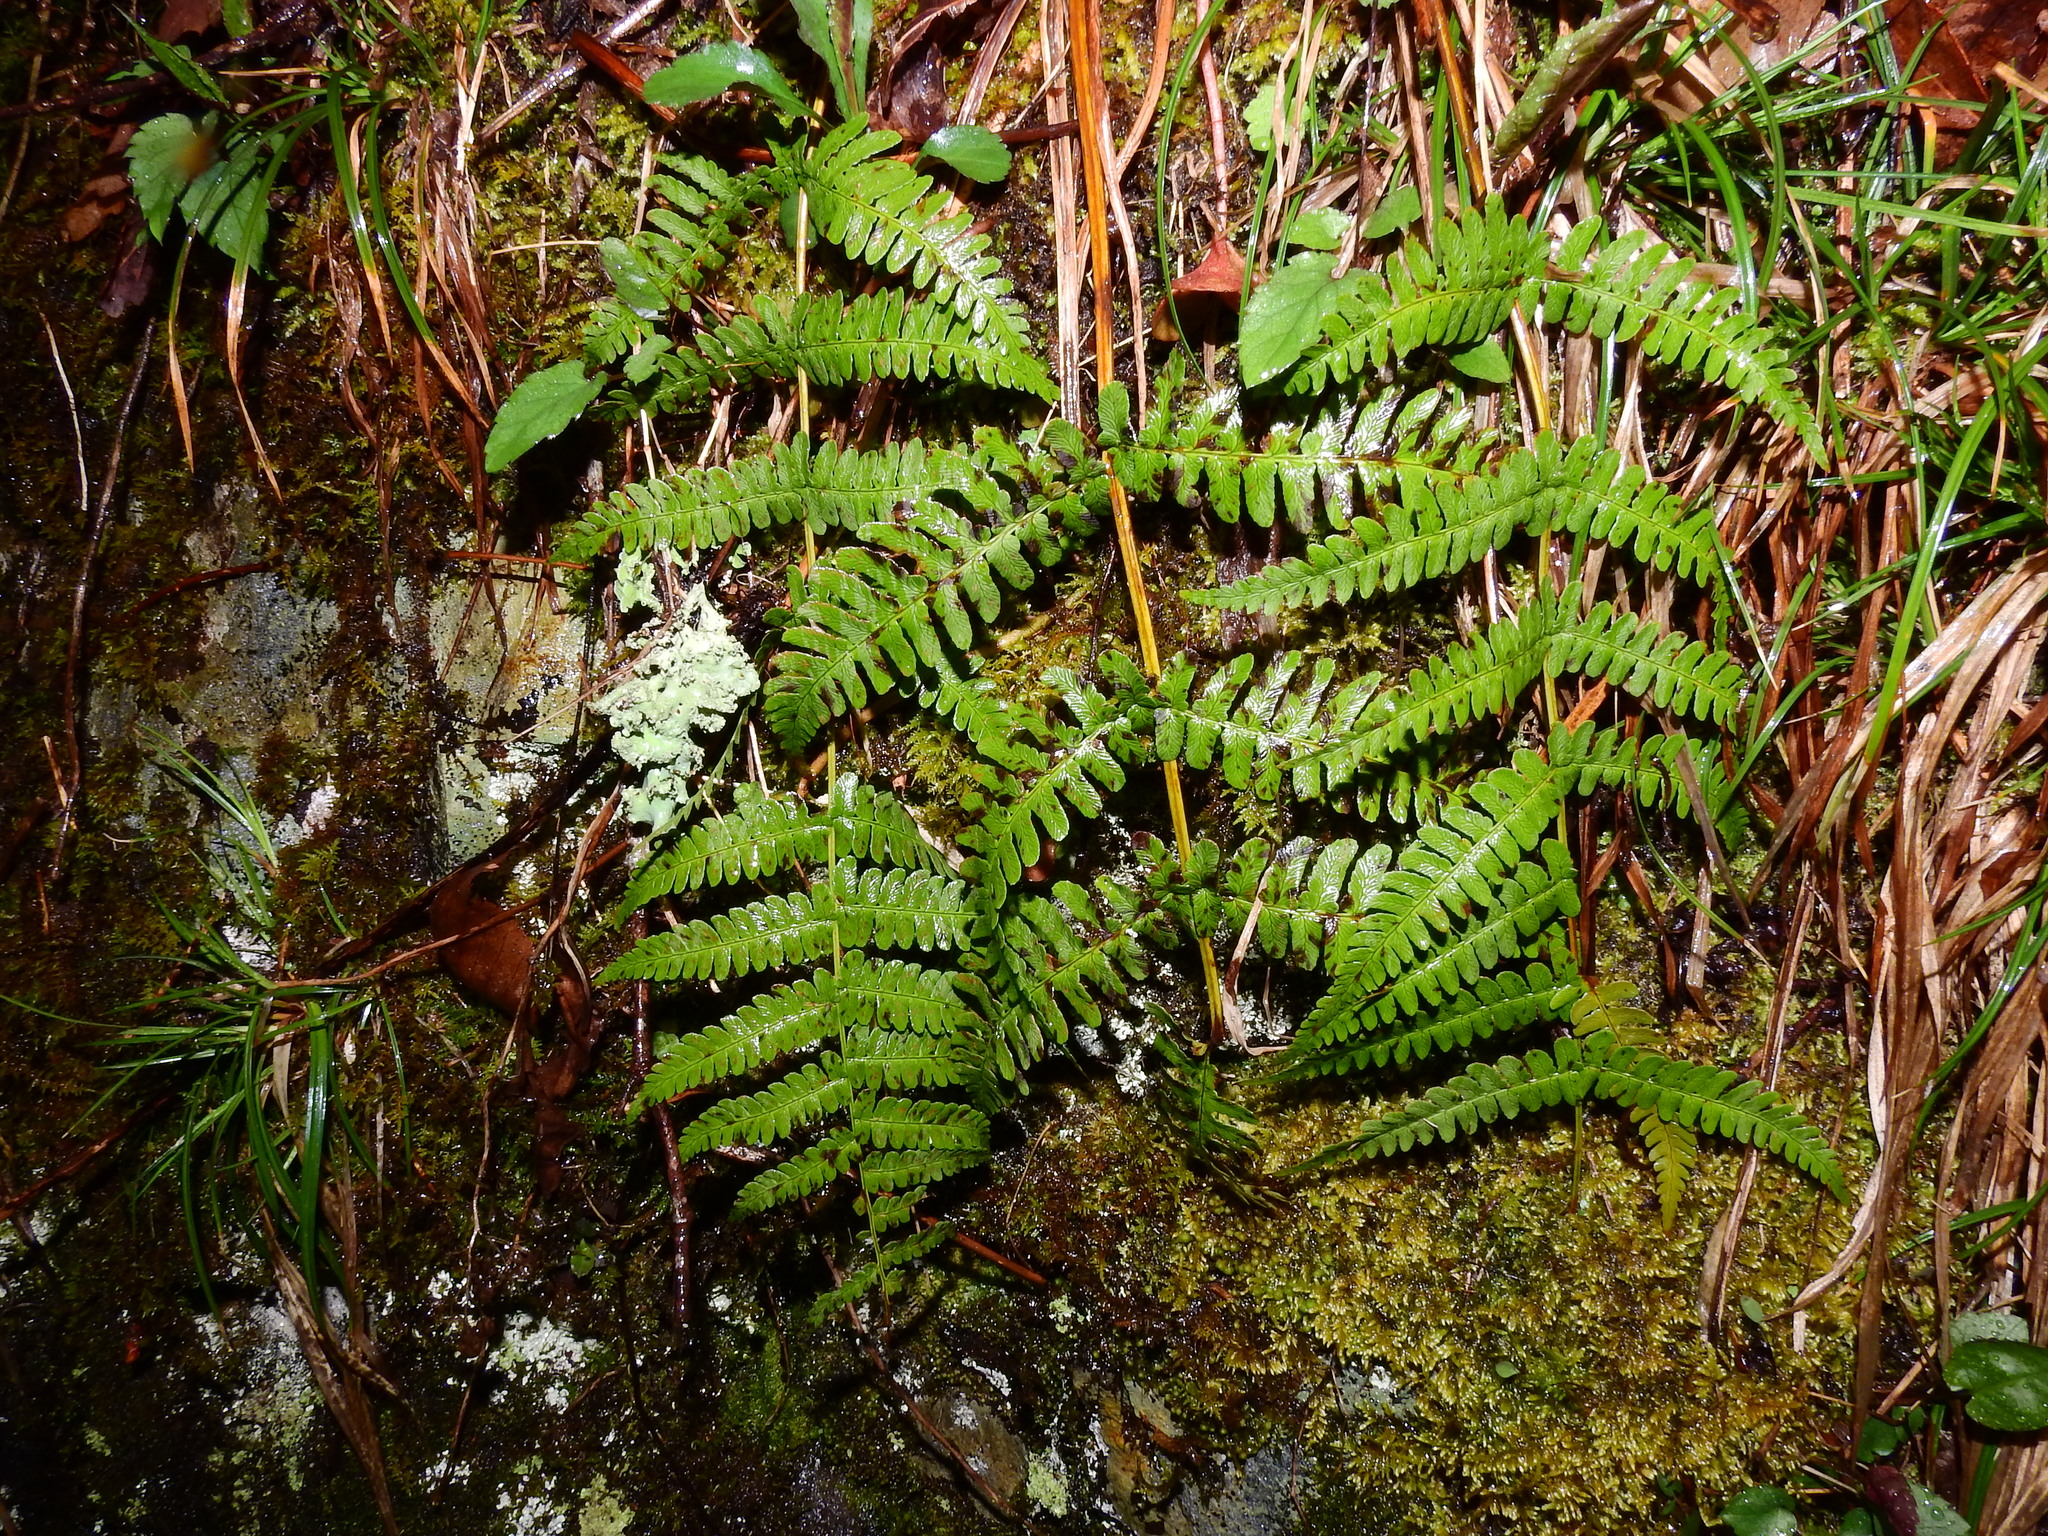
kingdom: Plantae
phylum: Tracheophyta
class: Polypodiopsida
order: Polypodiales
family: Dryopteridaceae
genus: Dryopteris
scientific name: Dryopteris marginalis
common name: Marginal wood fern
